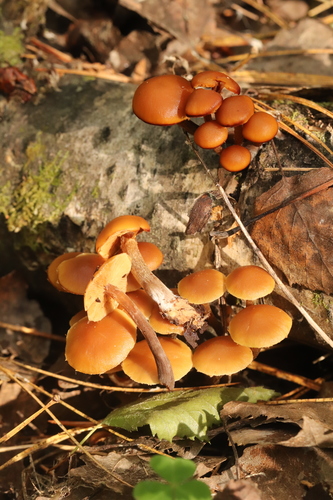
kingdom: Fungi
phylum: Basidiomycota
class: Agaricomycetes
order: Agaricales
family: Strophariaceae
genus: Pholiota
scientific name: Pholiota lignicola
